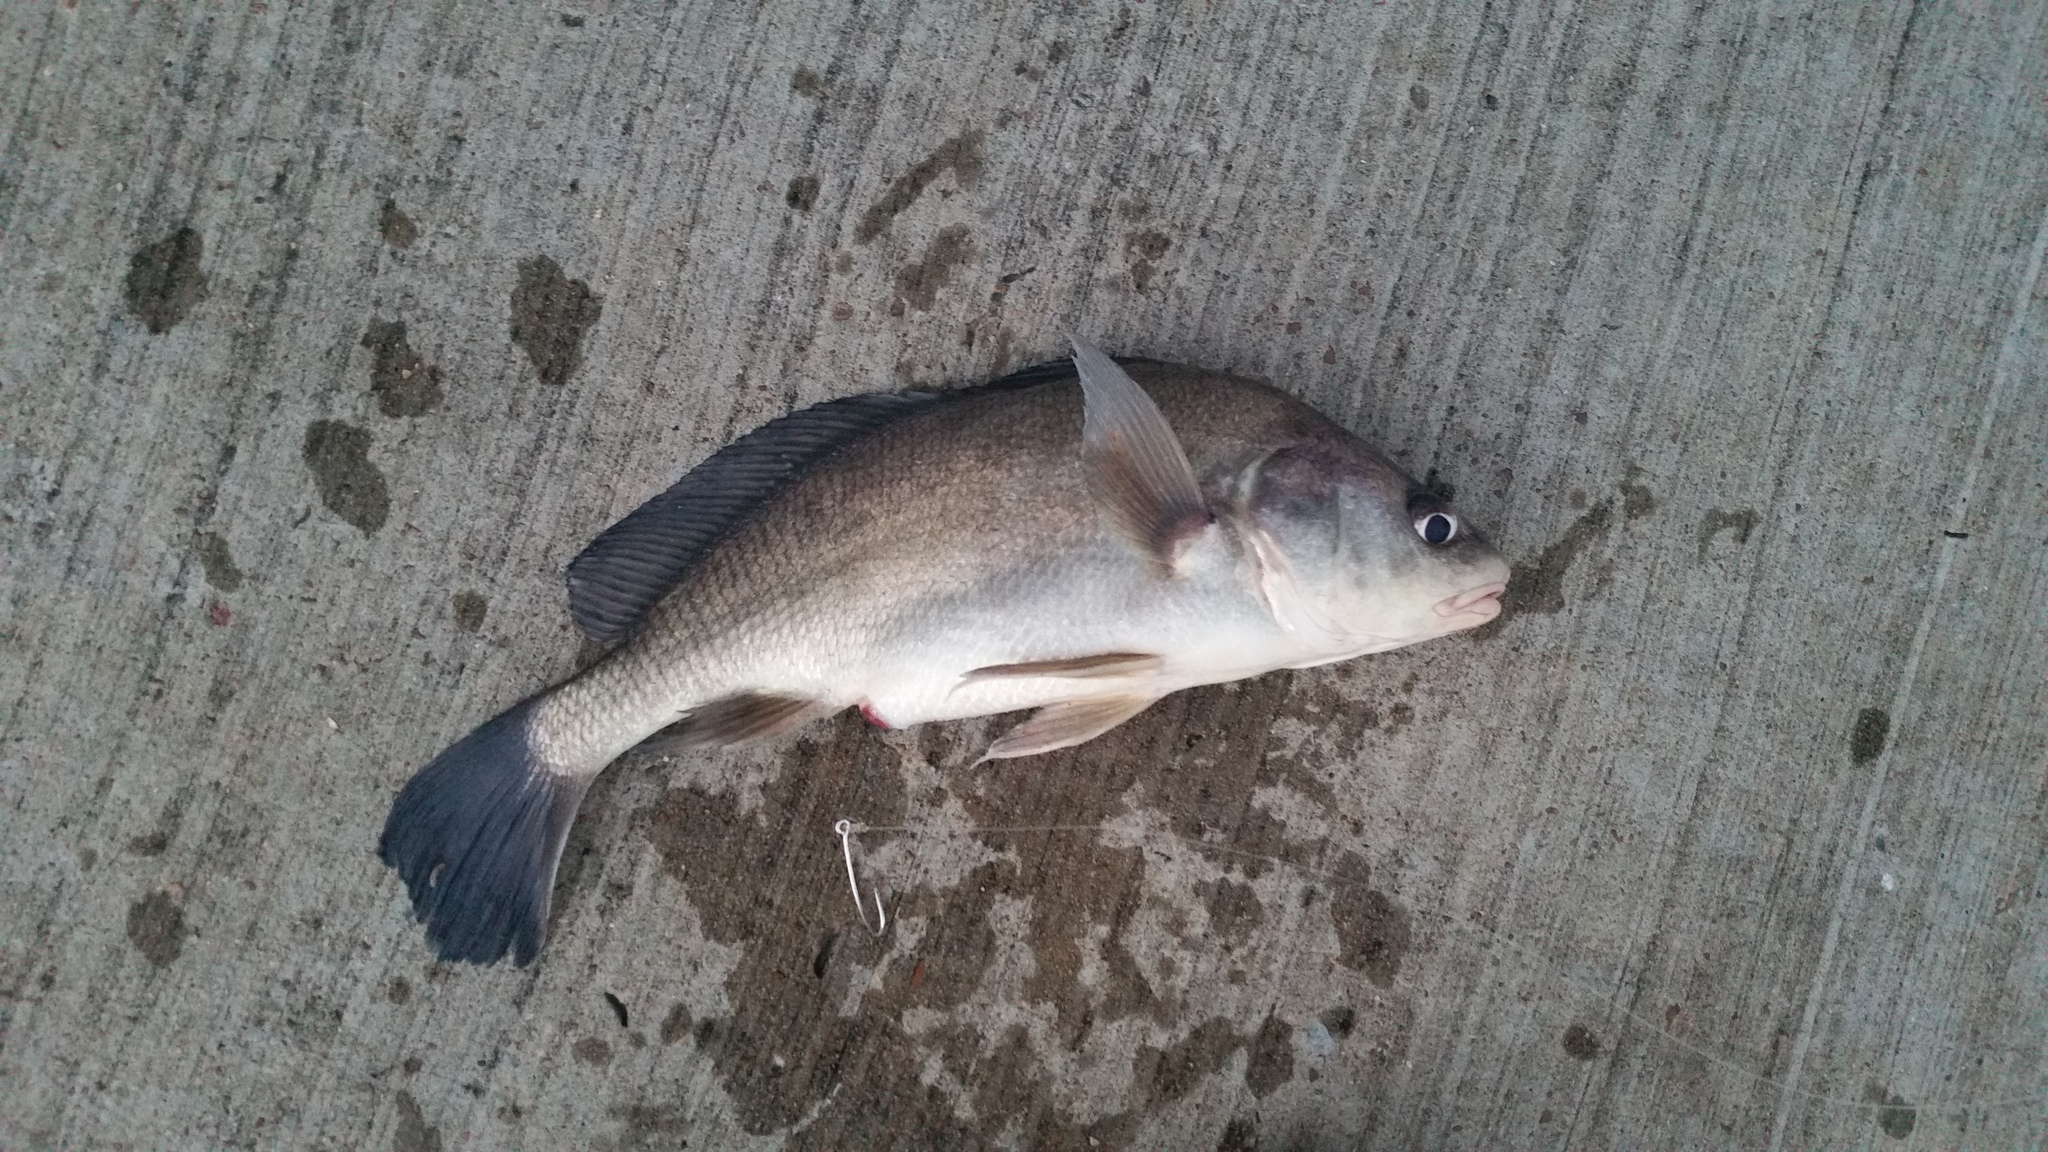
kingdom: Animalia
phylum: Chordata
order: Perciformes
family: Sciaenidae
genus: Aplodinotus
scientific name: Aplodinotus grunniens
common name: Freshwater drum
